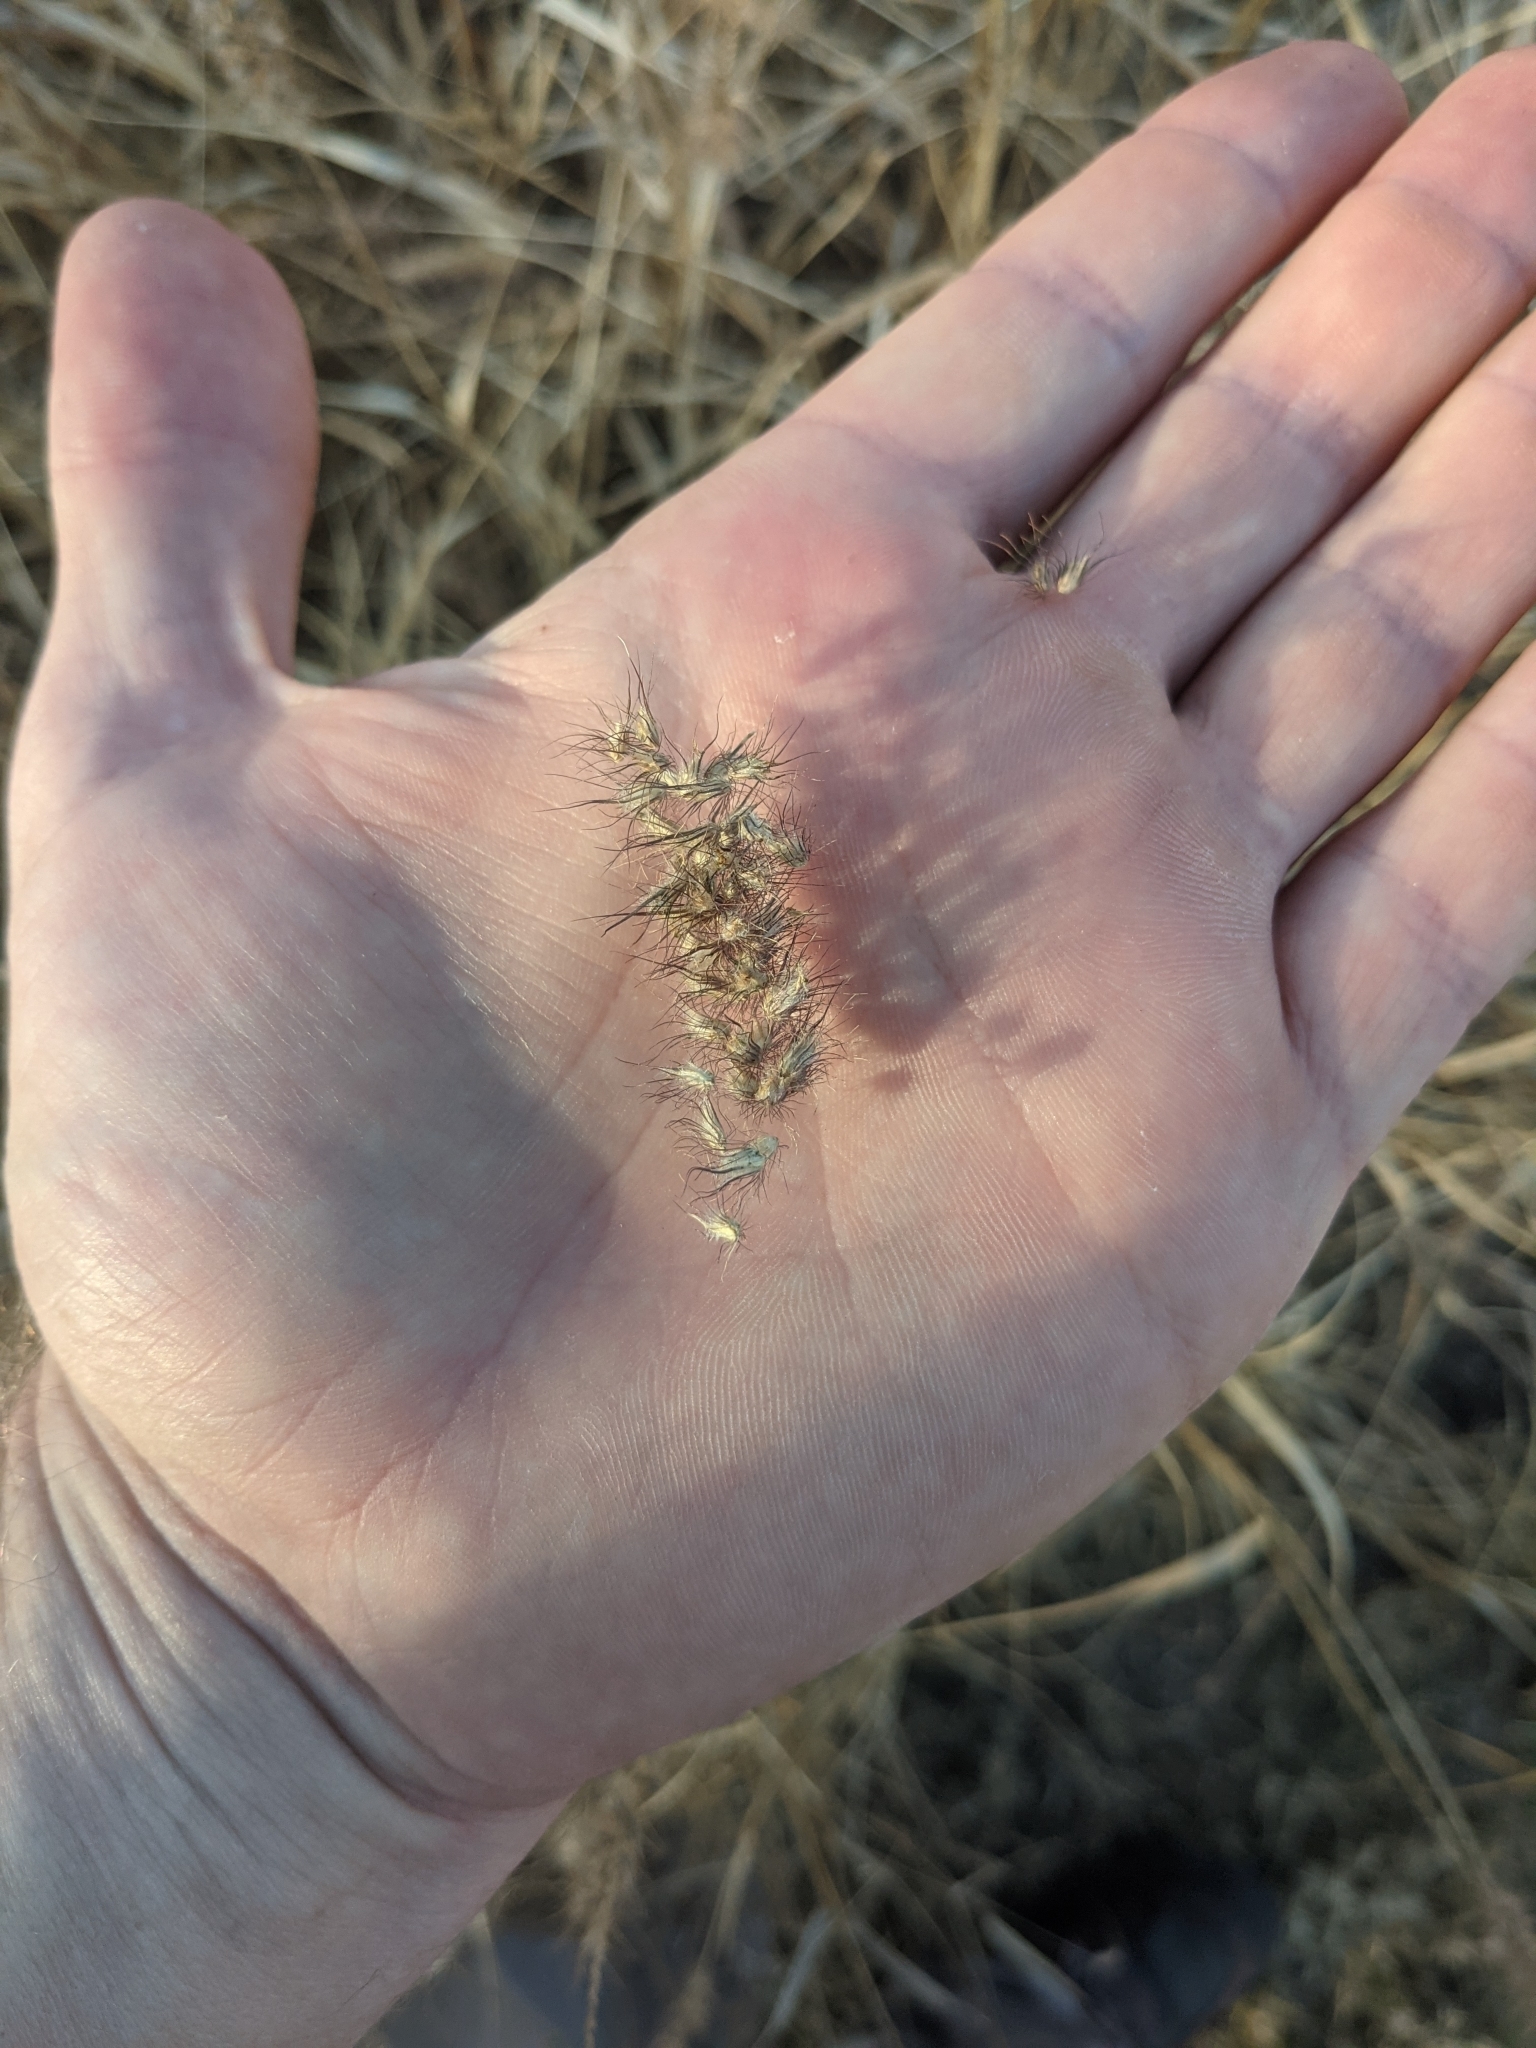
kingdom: Plantae
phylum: Tracheophyta
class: Liliopsida
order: Poales
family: Poaceae
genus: Cenchrus
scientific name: Cenchrus ciliaris
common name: Buffelgrass
